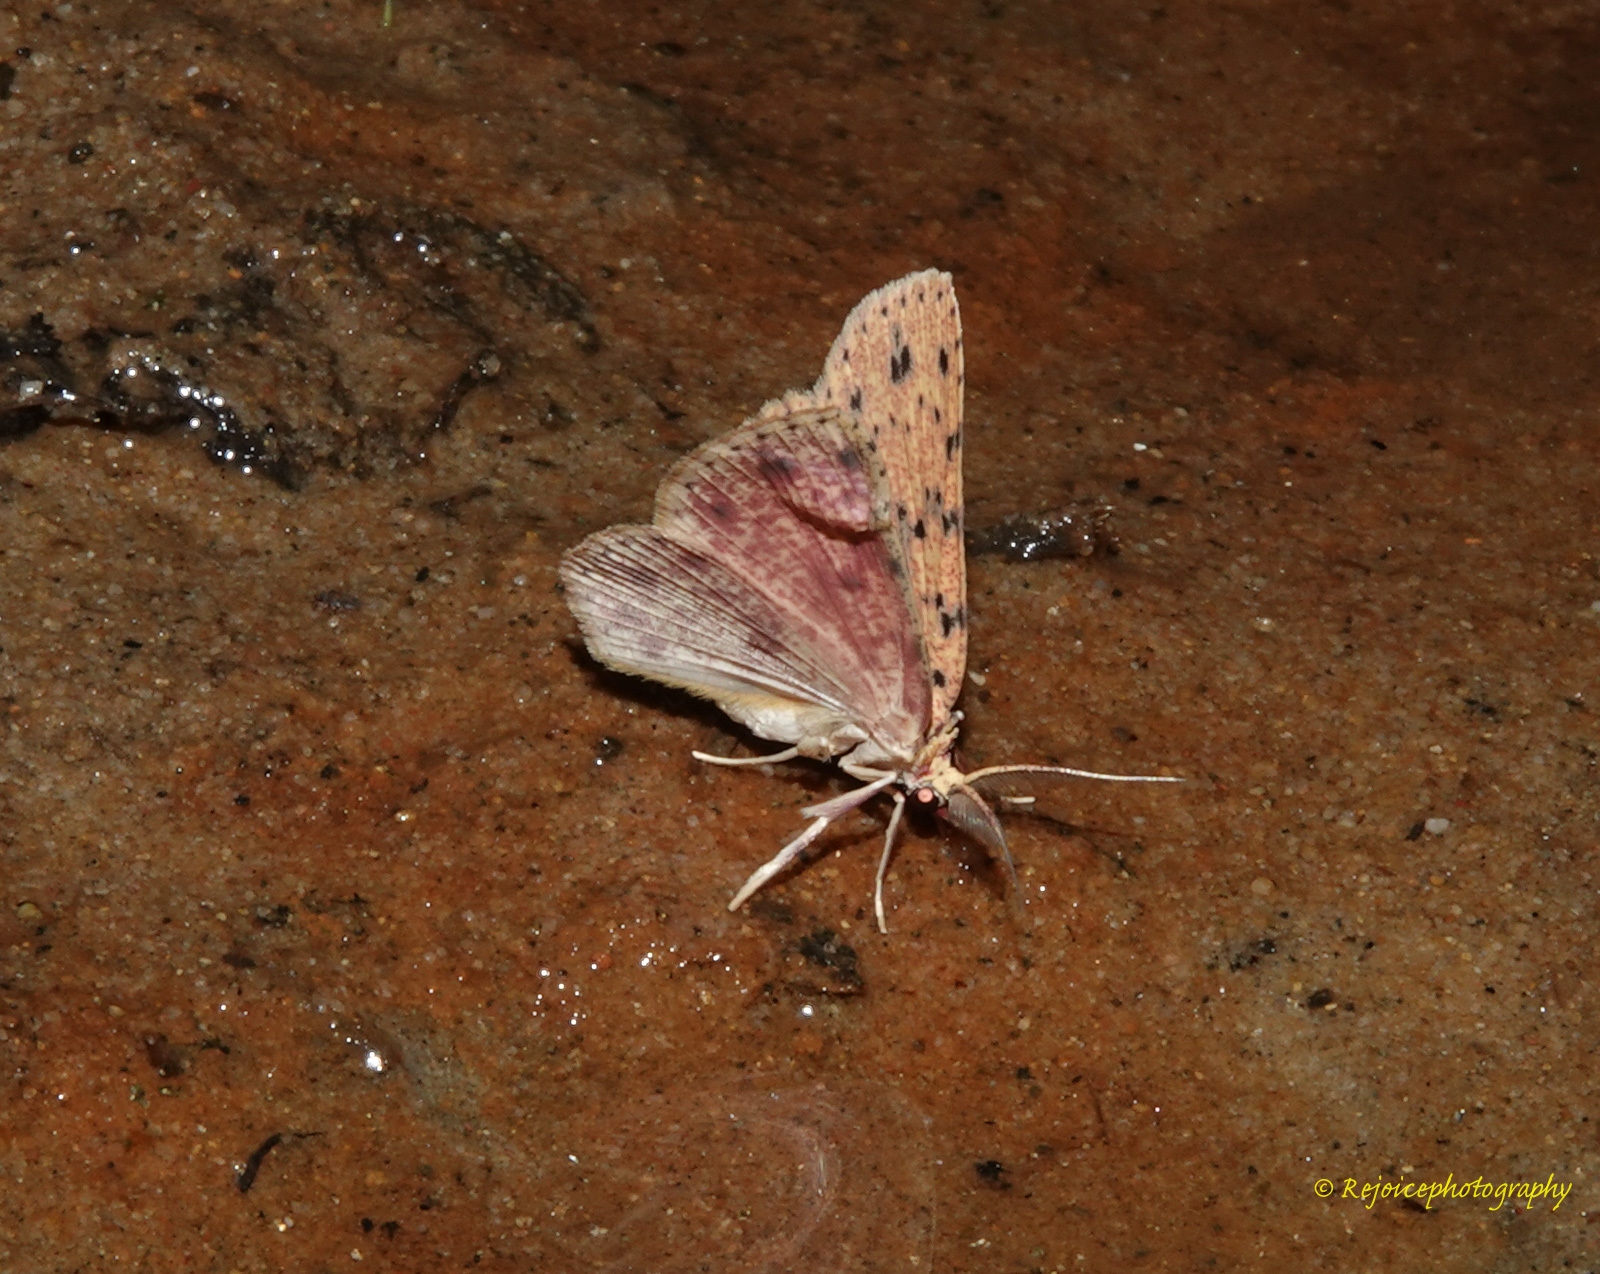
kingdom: Animalia
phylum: Arthropoda
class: Insecta
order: Lepidoptera
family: Geometridae
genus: Perixera
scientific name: Perixera jocosa
